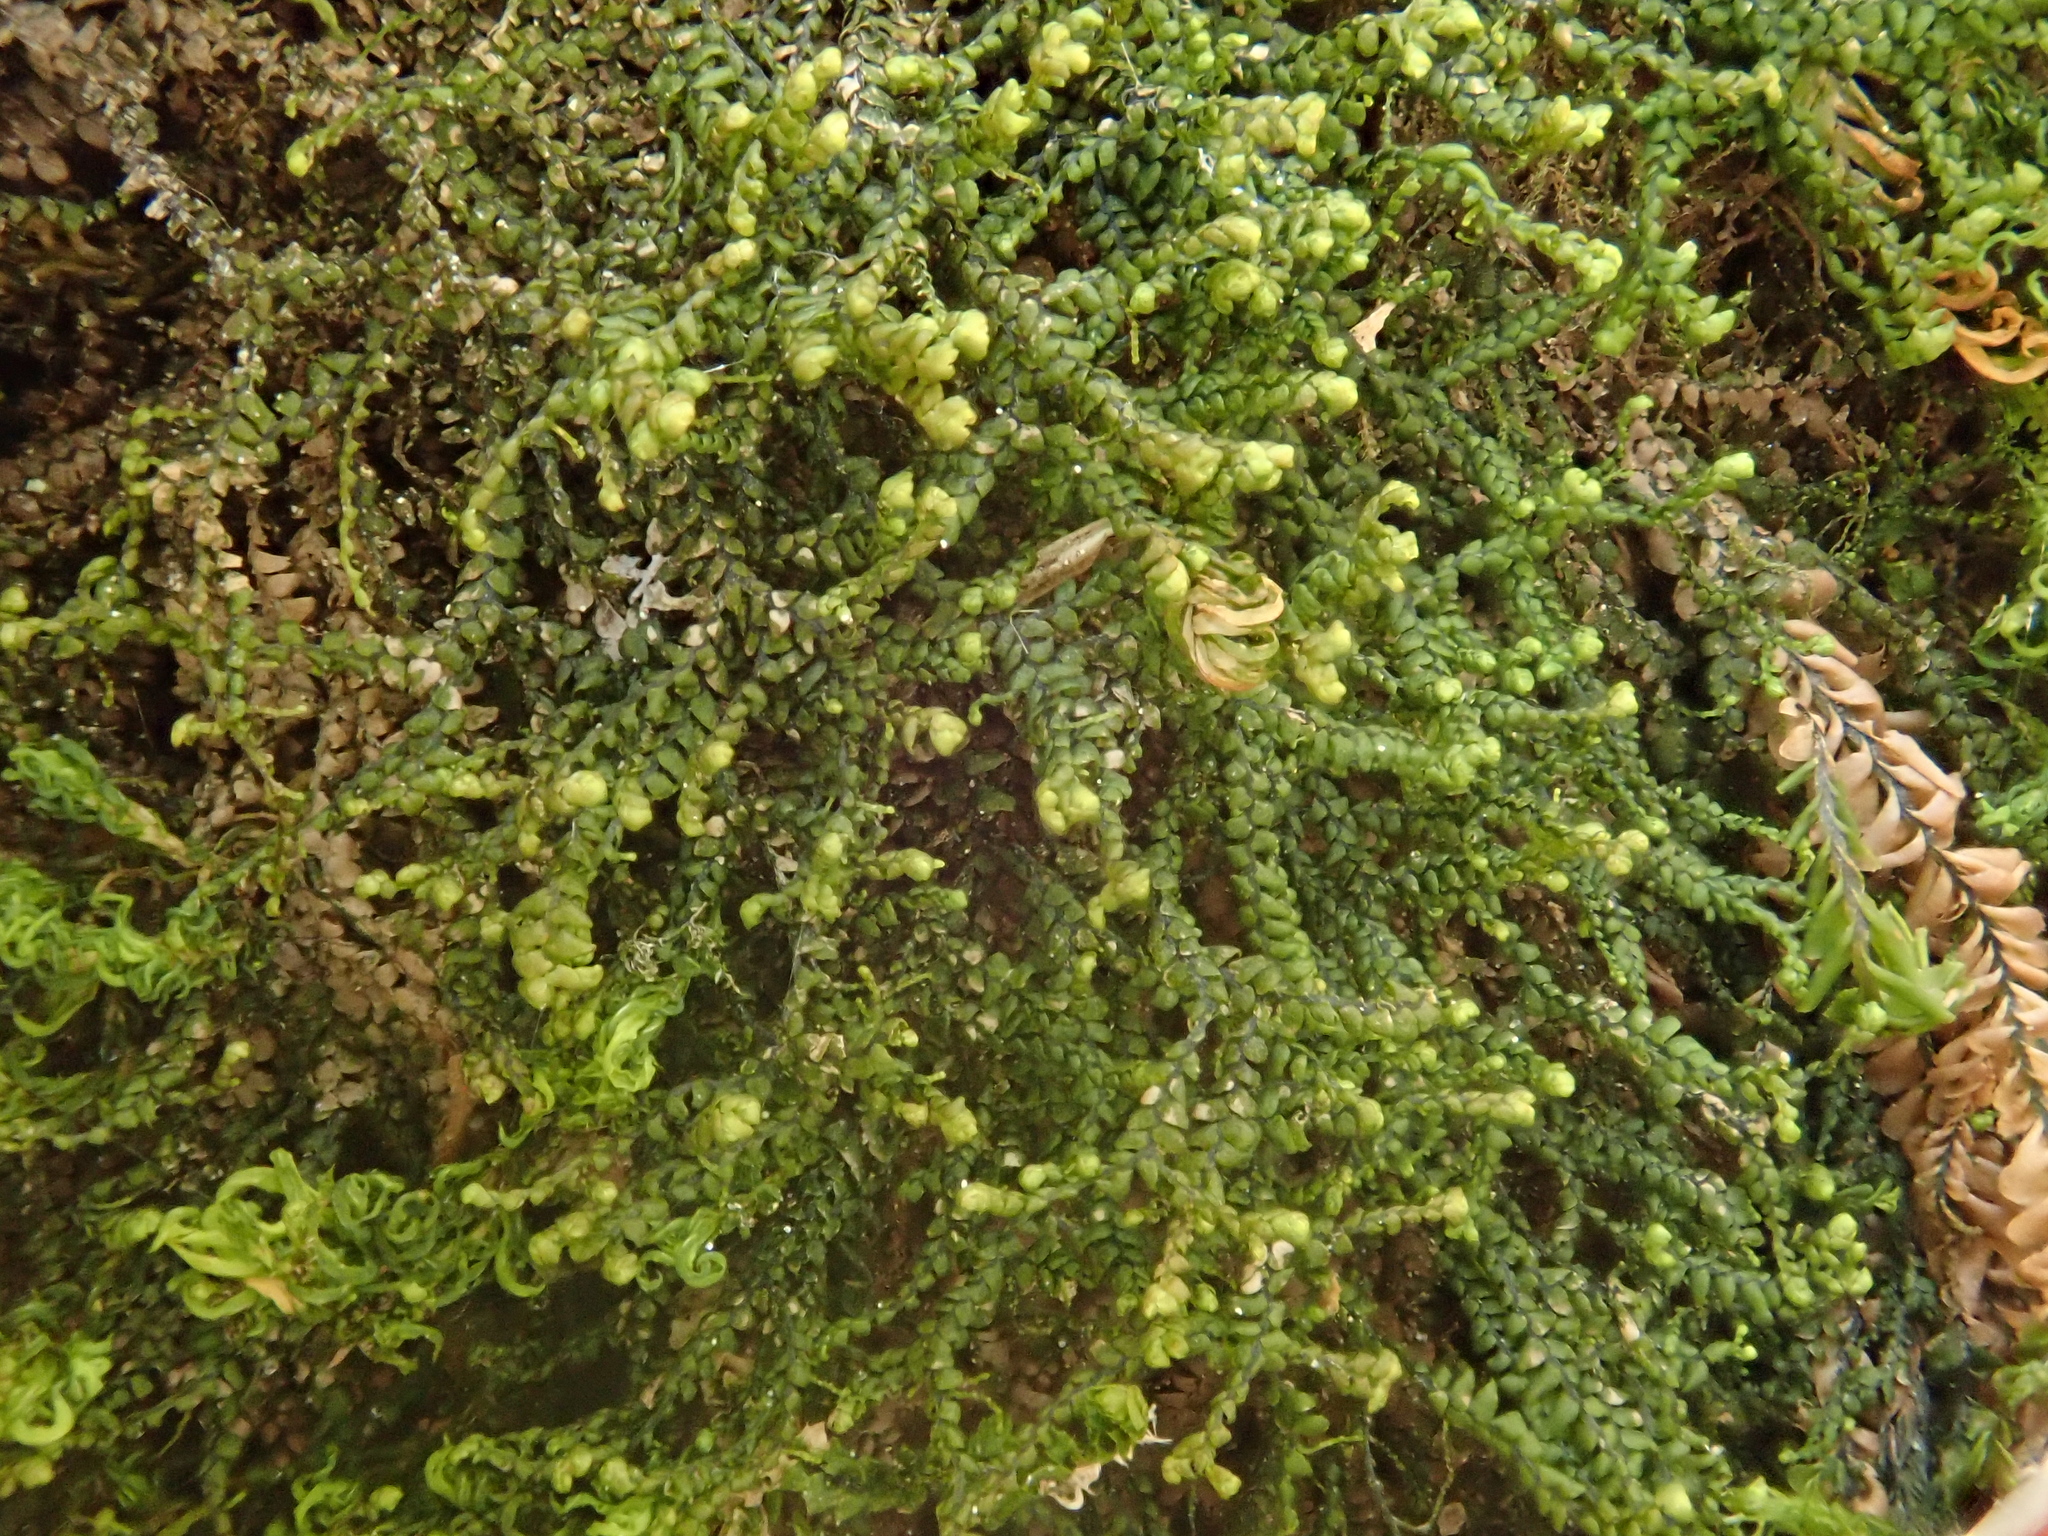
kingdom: Plantae
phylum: Marchantiophyta
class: Jungermanniopsida
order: Jungermanniales
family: Lepidoziaceae
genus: Bazzania
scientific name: Bazzania flaccida
